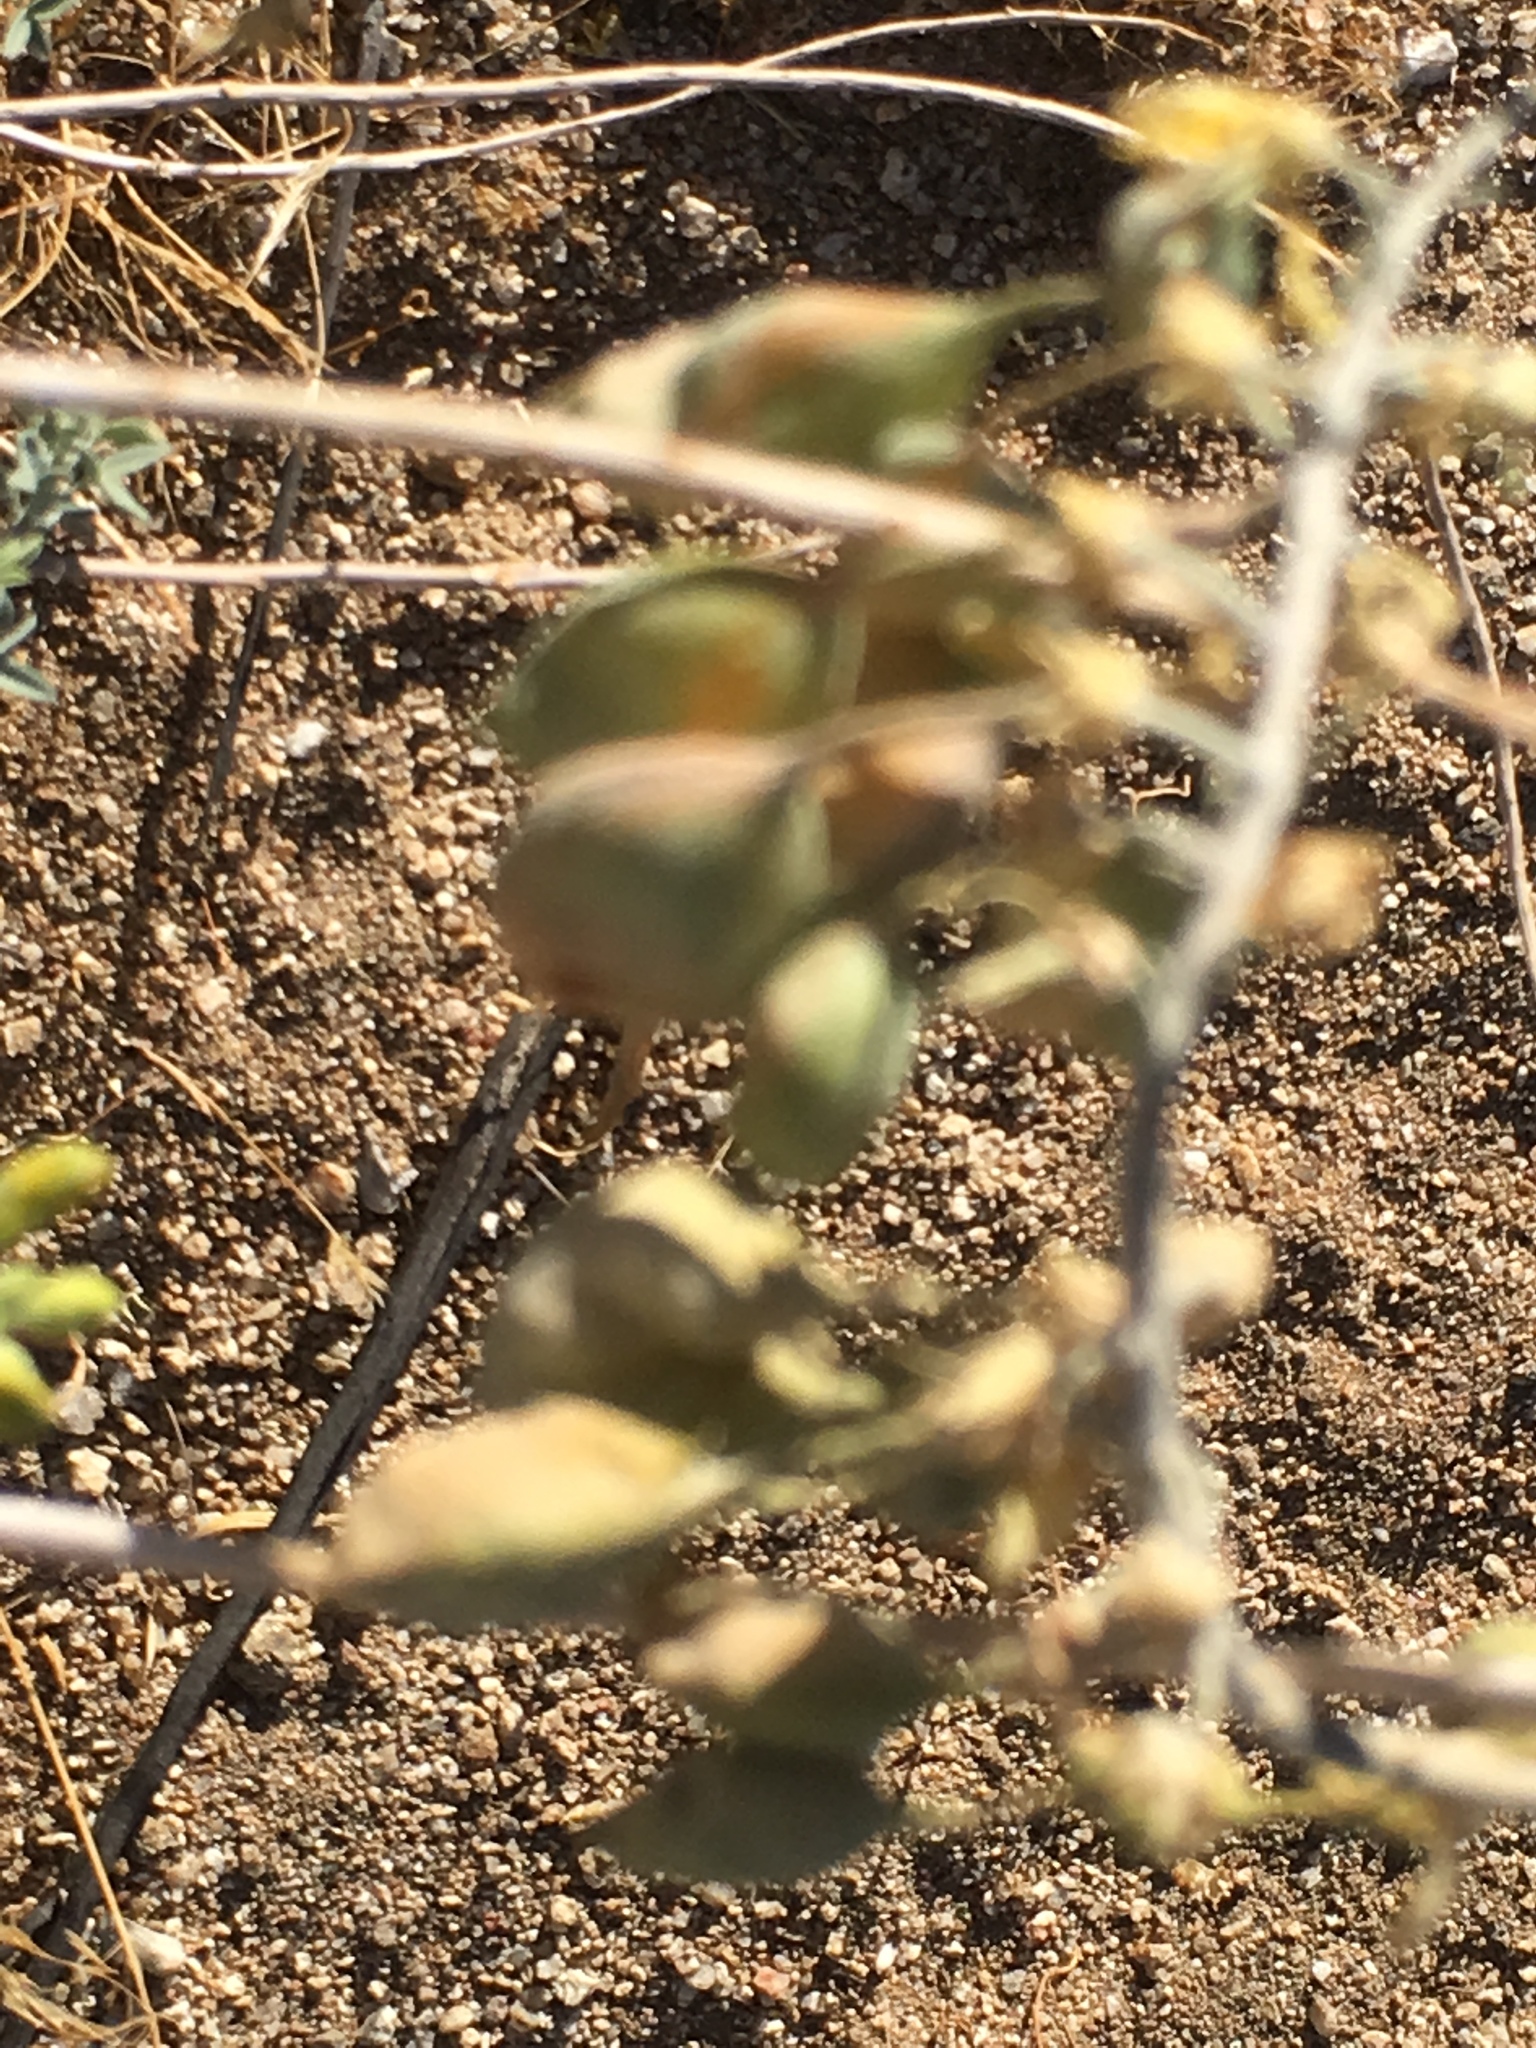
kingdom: Plantae
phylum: Tracheophyta
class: Magnoliopsida
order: Brassicales
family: Cleomaceae
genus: Cleomella
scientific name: Cleomella arborea
